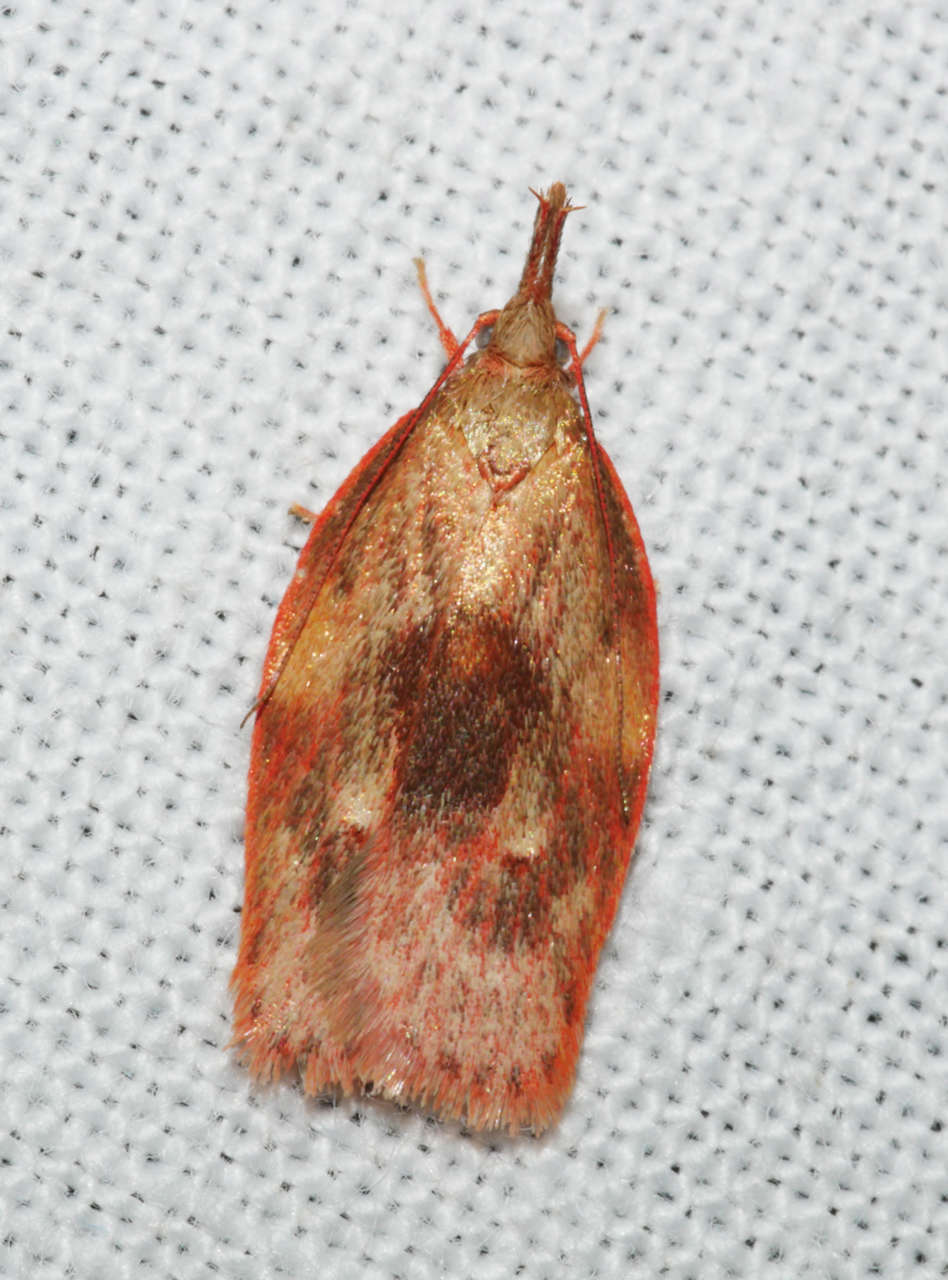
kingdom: Animalia
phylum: Arthropoda
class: Insecta
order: Lepidoptera
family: Depressariidae
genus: Enchocrates
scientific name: Enchocrates glaucopis
